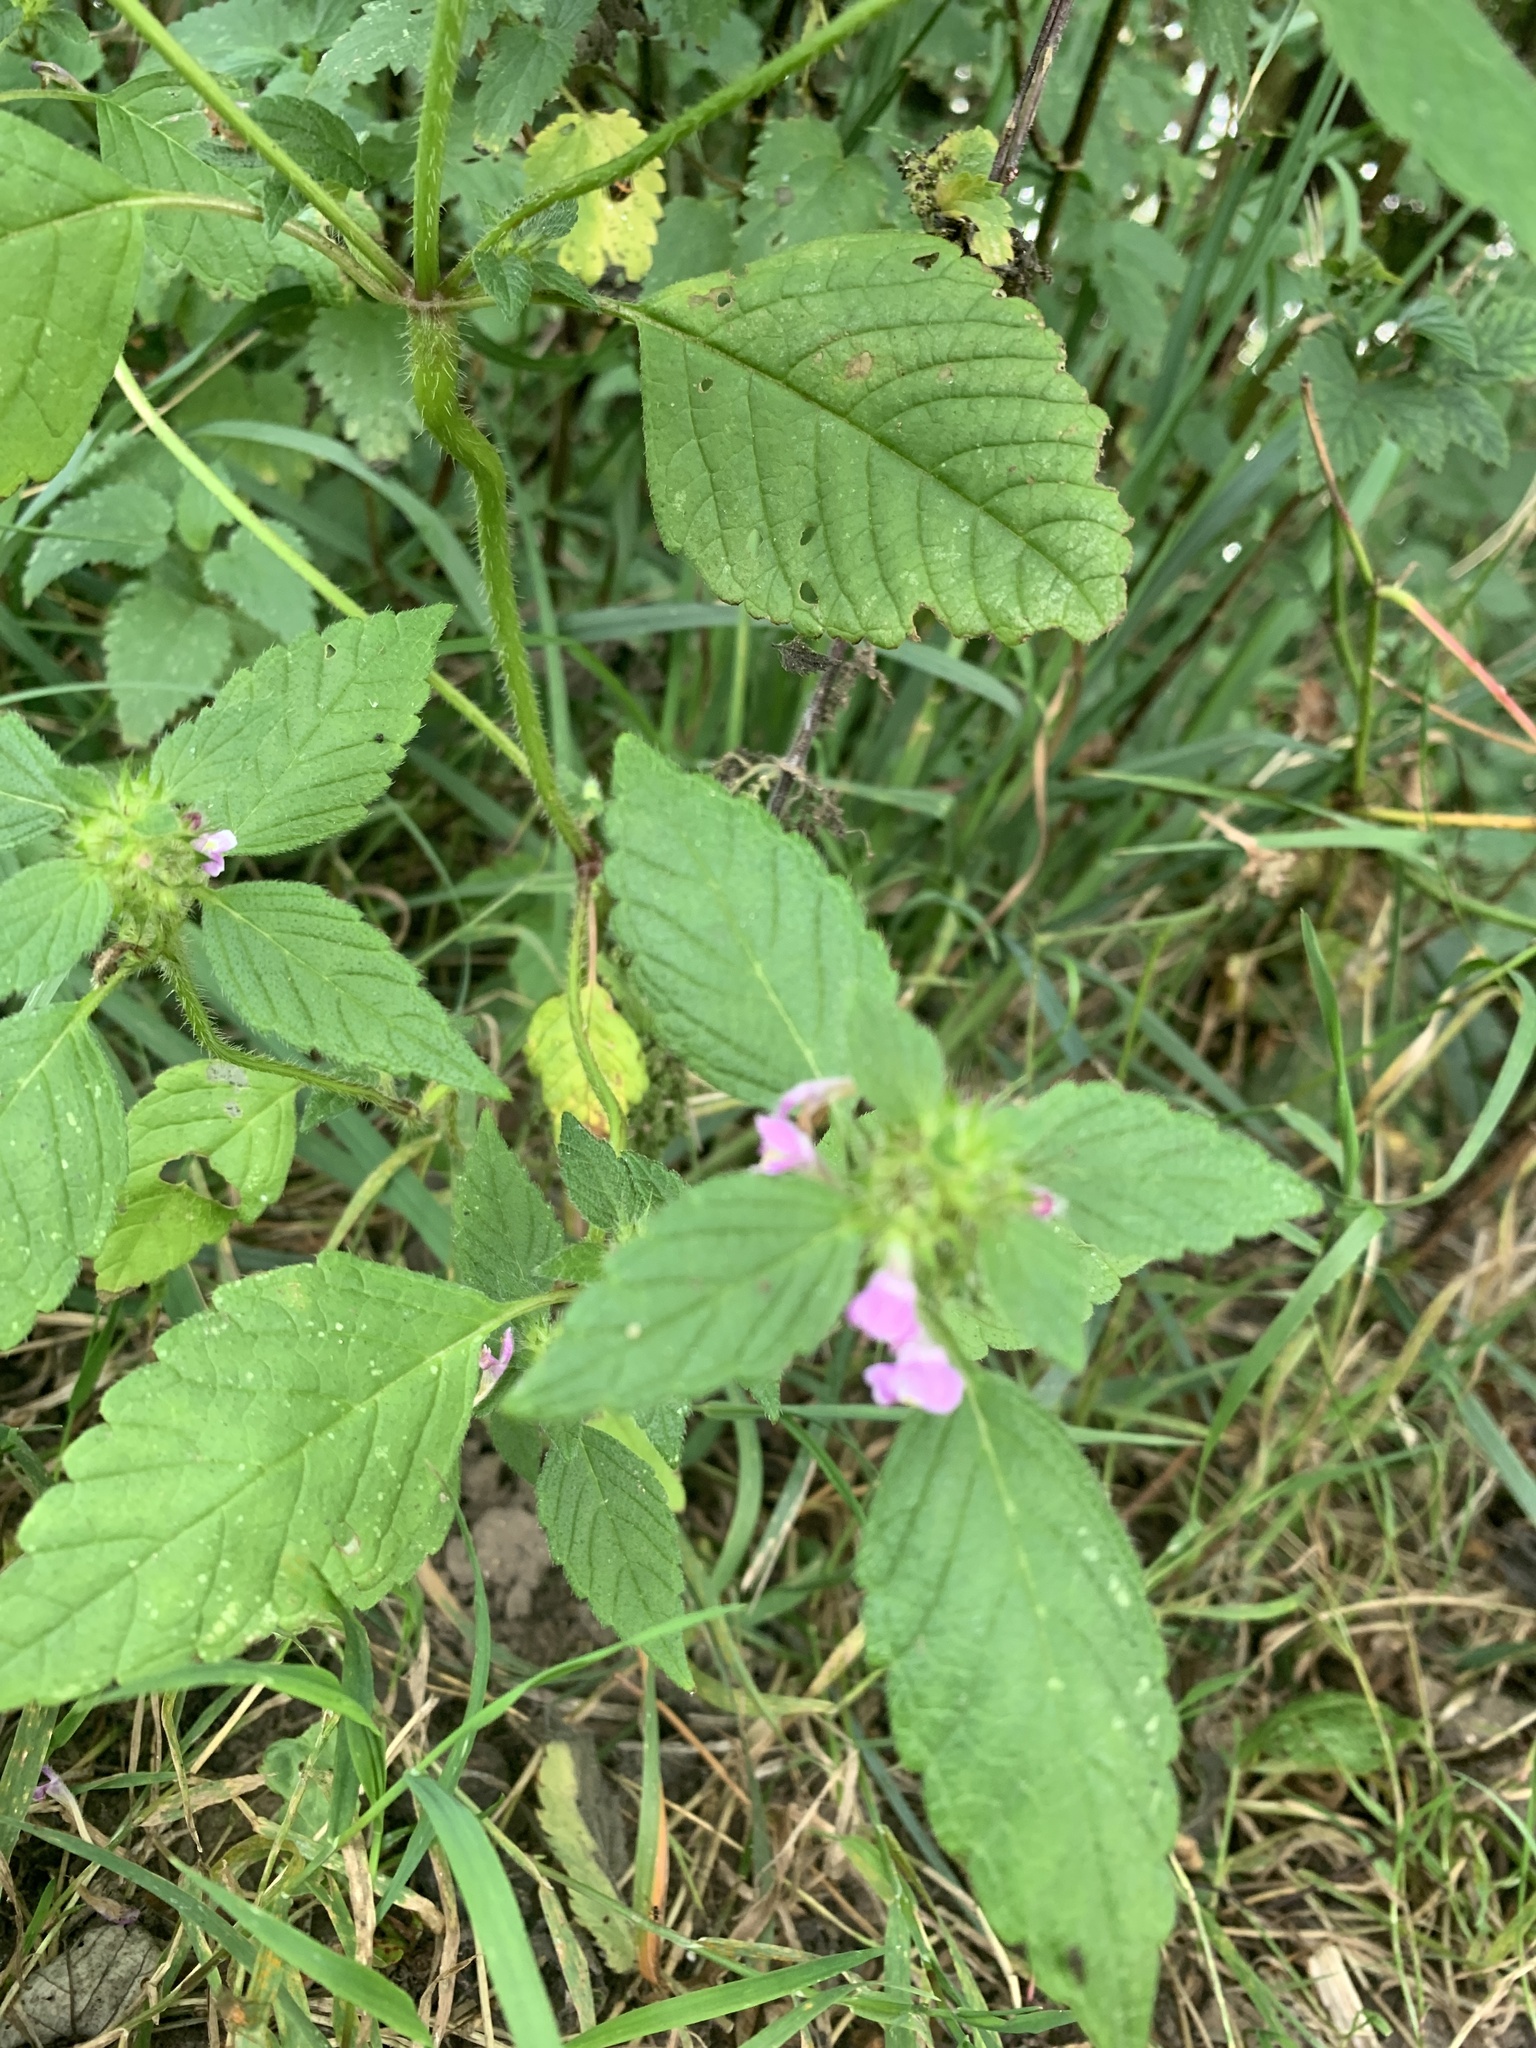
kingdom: Plantae
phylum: Tracheophyta
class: Magnoliopsida
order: Lamiales
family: Lamiaceae
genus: Galeopsis
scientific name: Galeopsis tetrahit
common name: Common hemp-nettle
